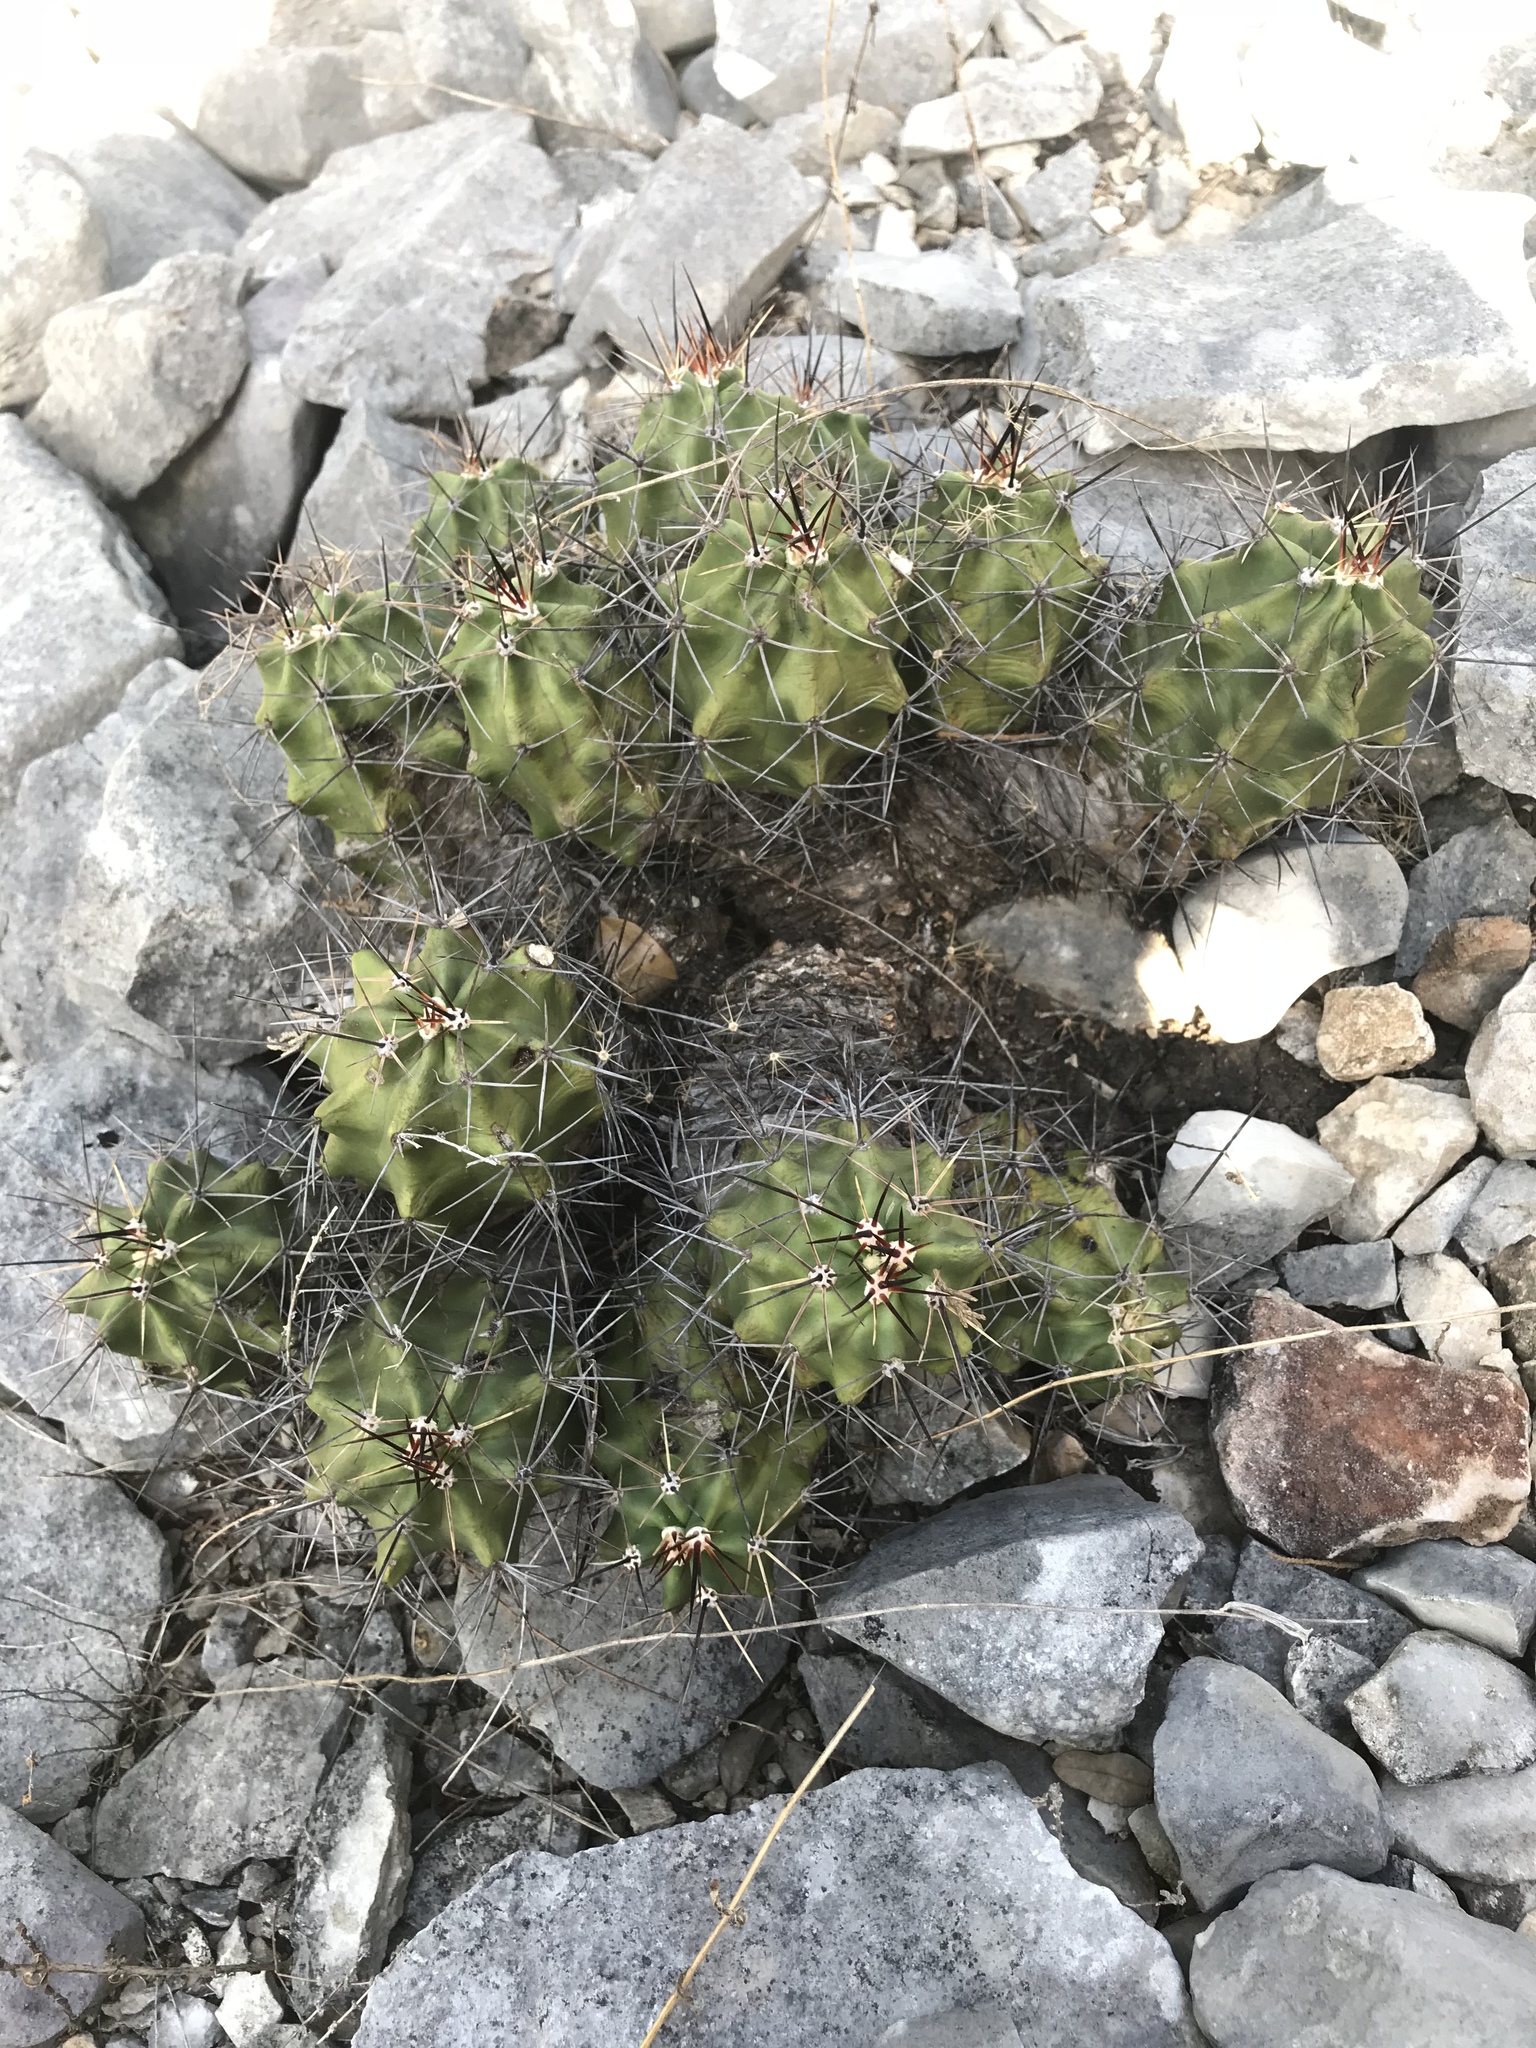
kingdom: Plantae
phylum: Tracheophyta
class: Magnoliopsida
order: Caryophyllales
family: Cactaceae
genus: Echinocereus
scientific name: Echinocereus coccineus
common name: Scarlet hedgehog cactus
